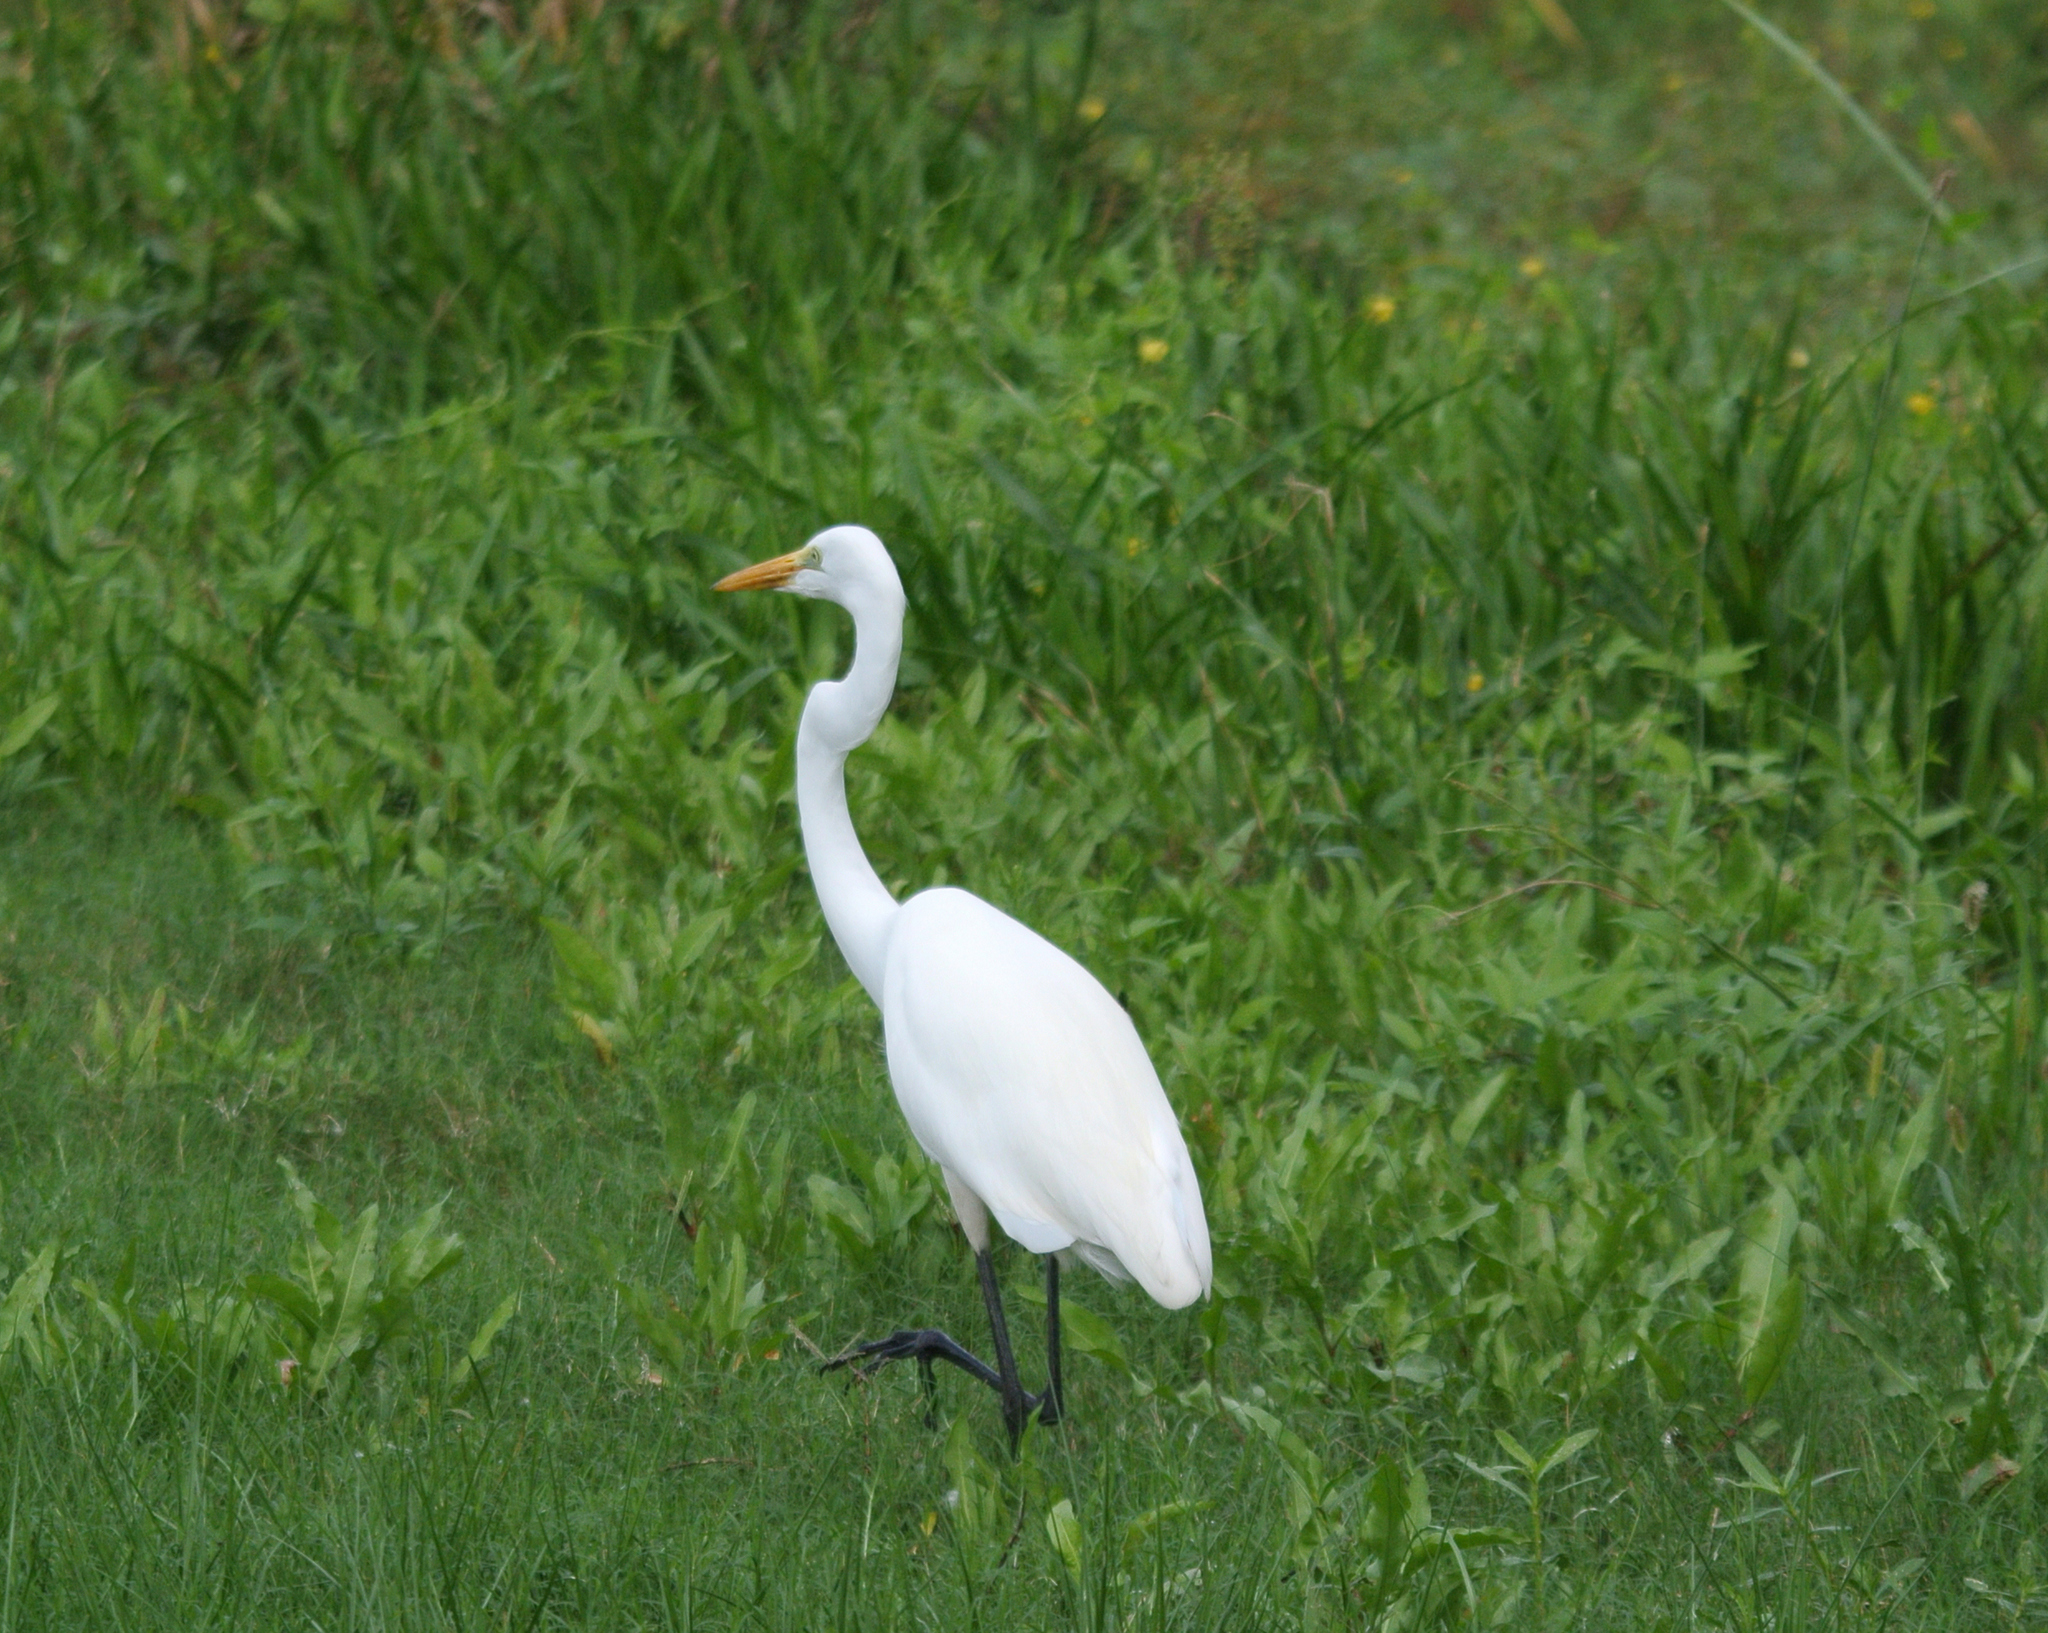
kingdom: Animalia
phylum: Chordata
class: Aves
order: Pelecaniformes
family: Ardeidae
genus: Bubulcus
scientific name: Bubulcus ibis
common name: Cattle egret
